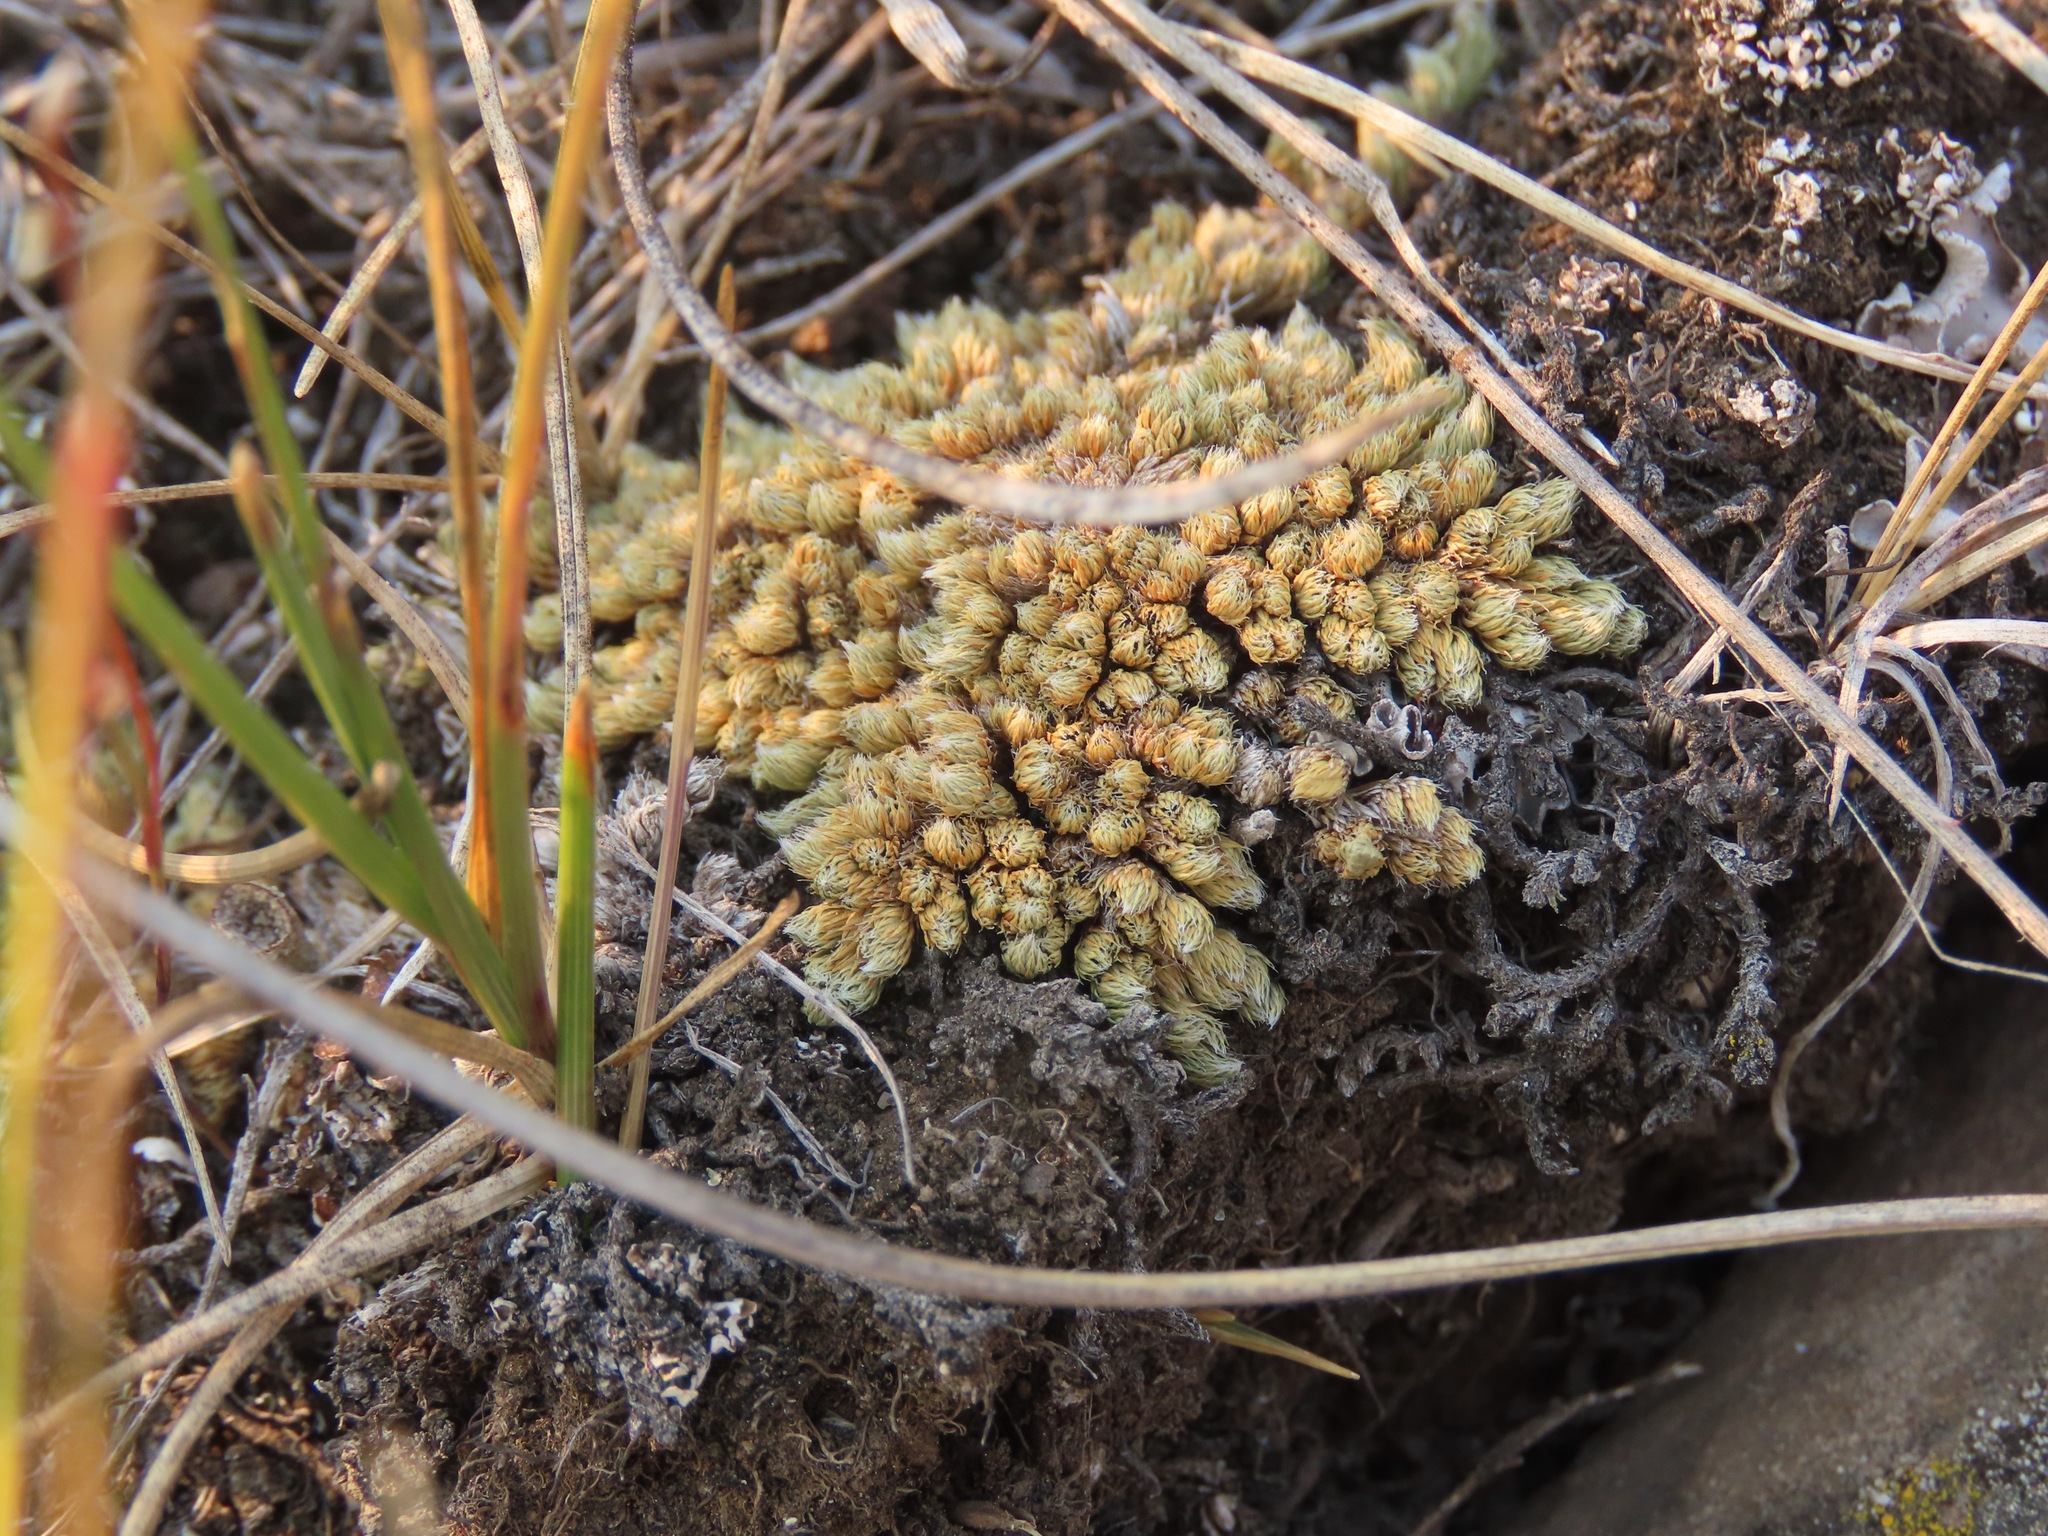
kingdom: Plantae
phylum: Tracheophyta
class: Lycopodiopsida
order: Selaginellales
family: Selaginellaceae
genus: Selaginella
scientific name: Selaginella densa
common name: Mountain spike-moss
